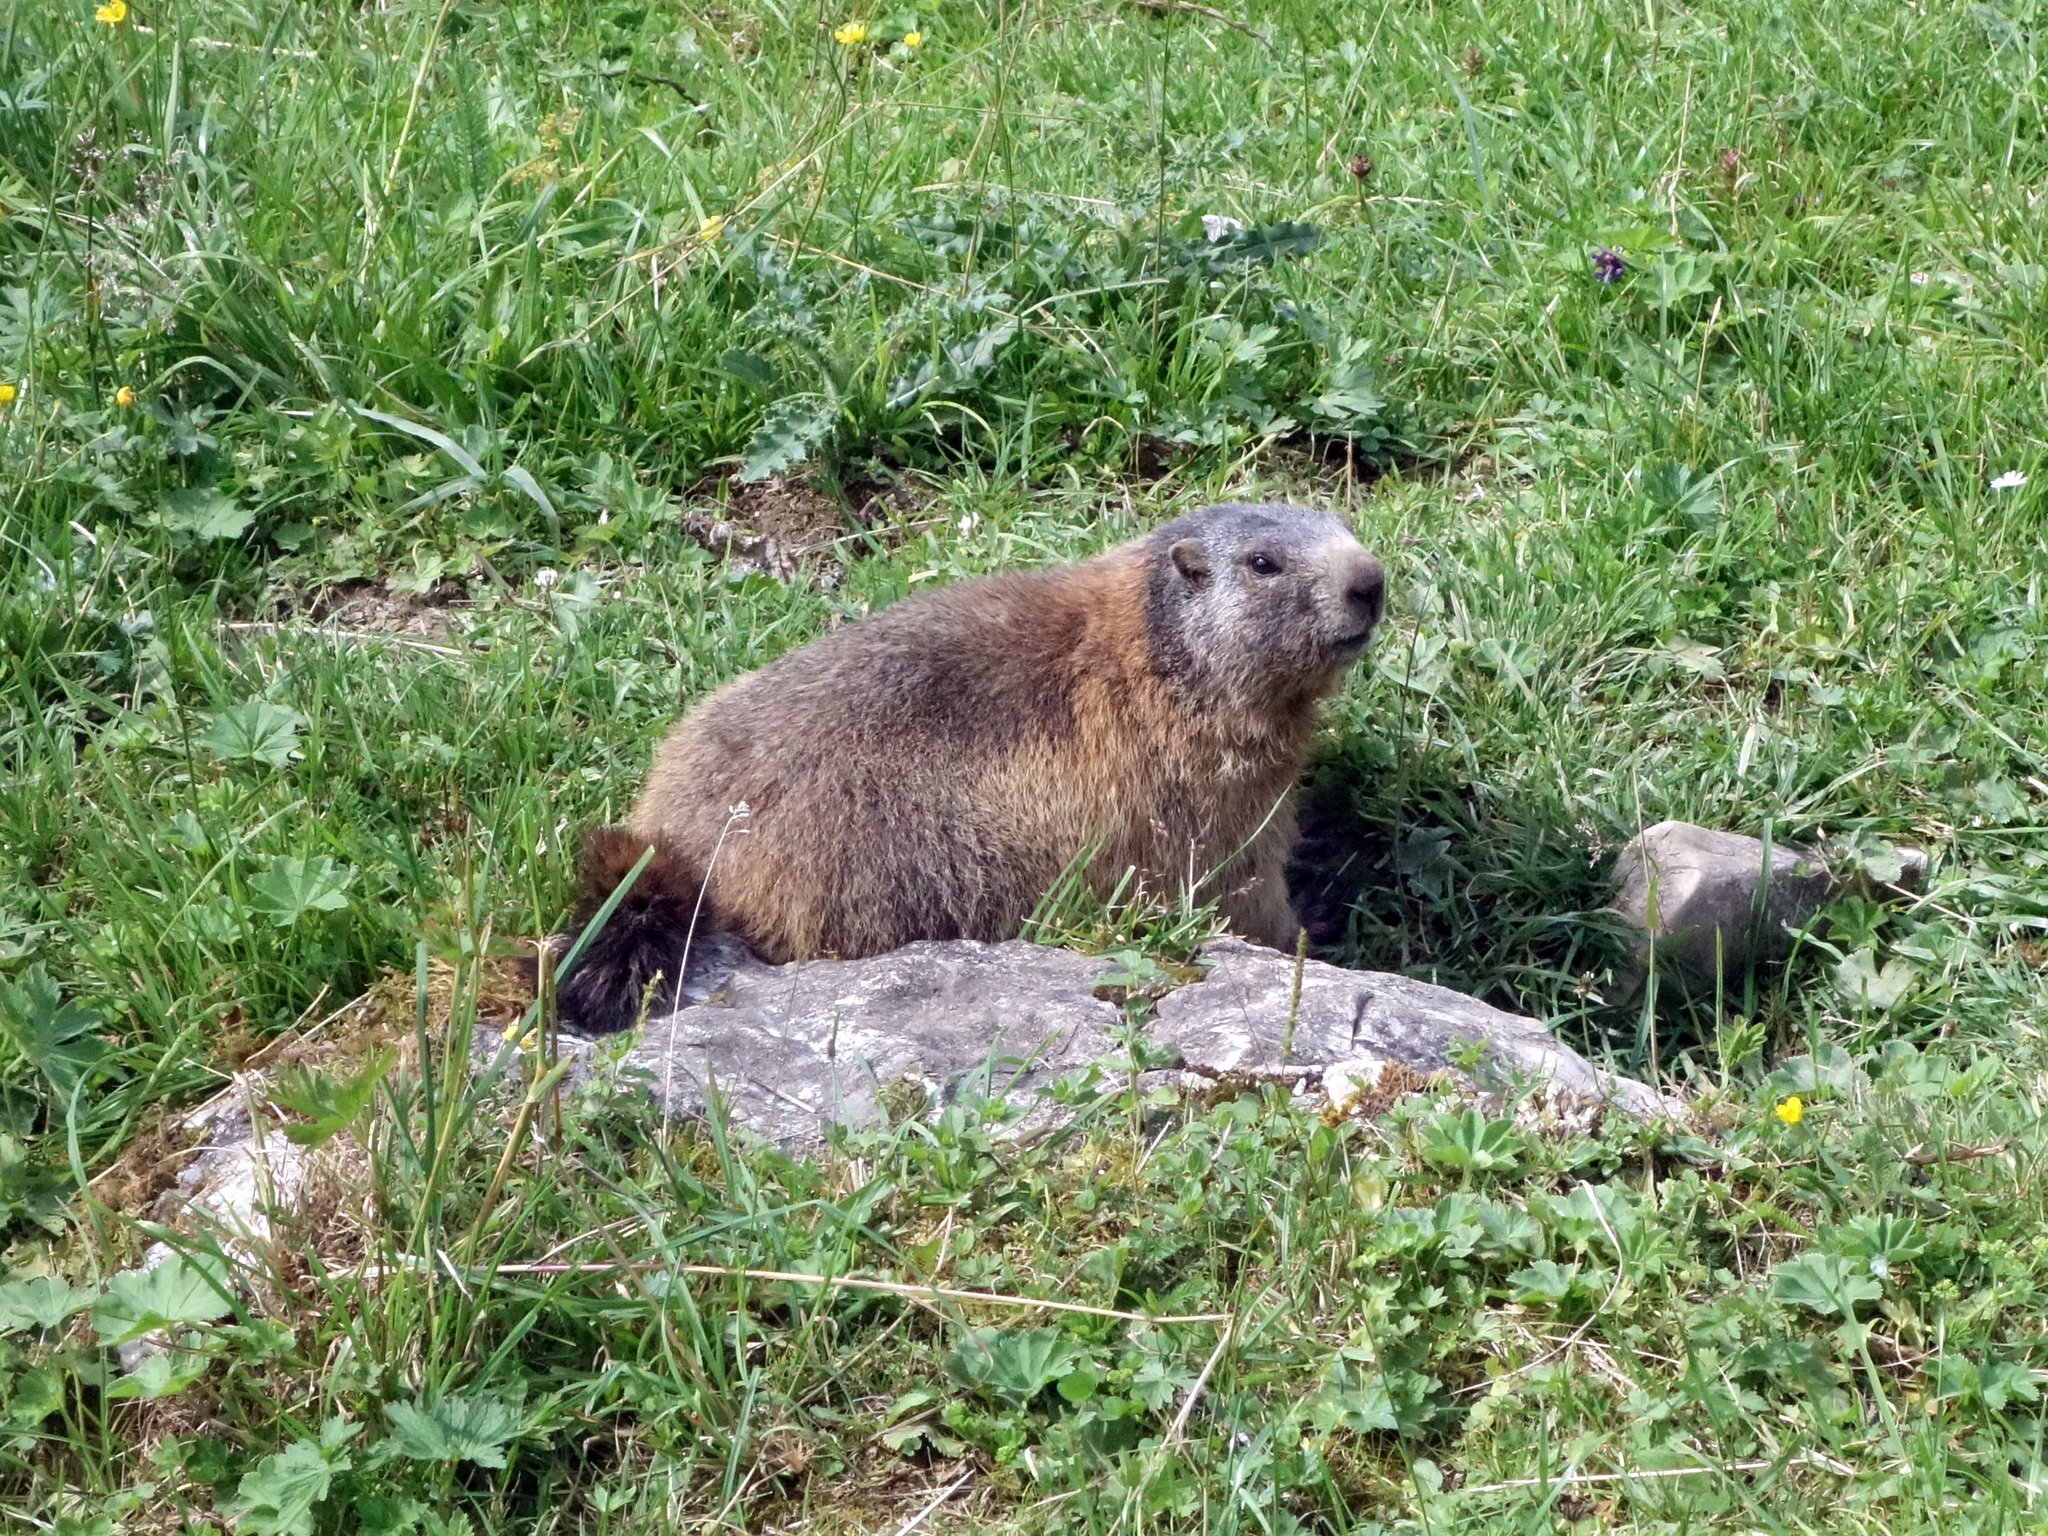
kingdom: Animalia
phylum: Chordata
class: Mammalia
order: Rodentia
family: Sciuridae
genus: Marmota
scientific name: Marmota marmota
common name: Alpine marmot
